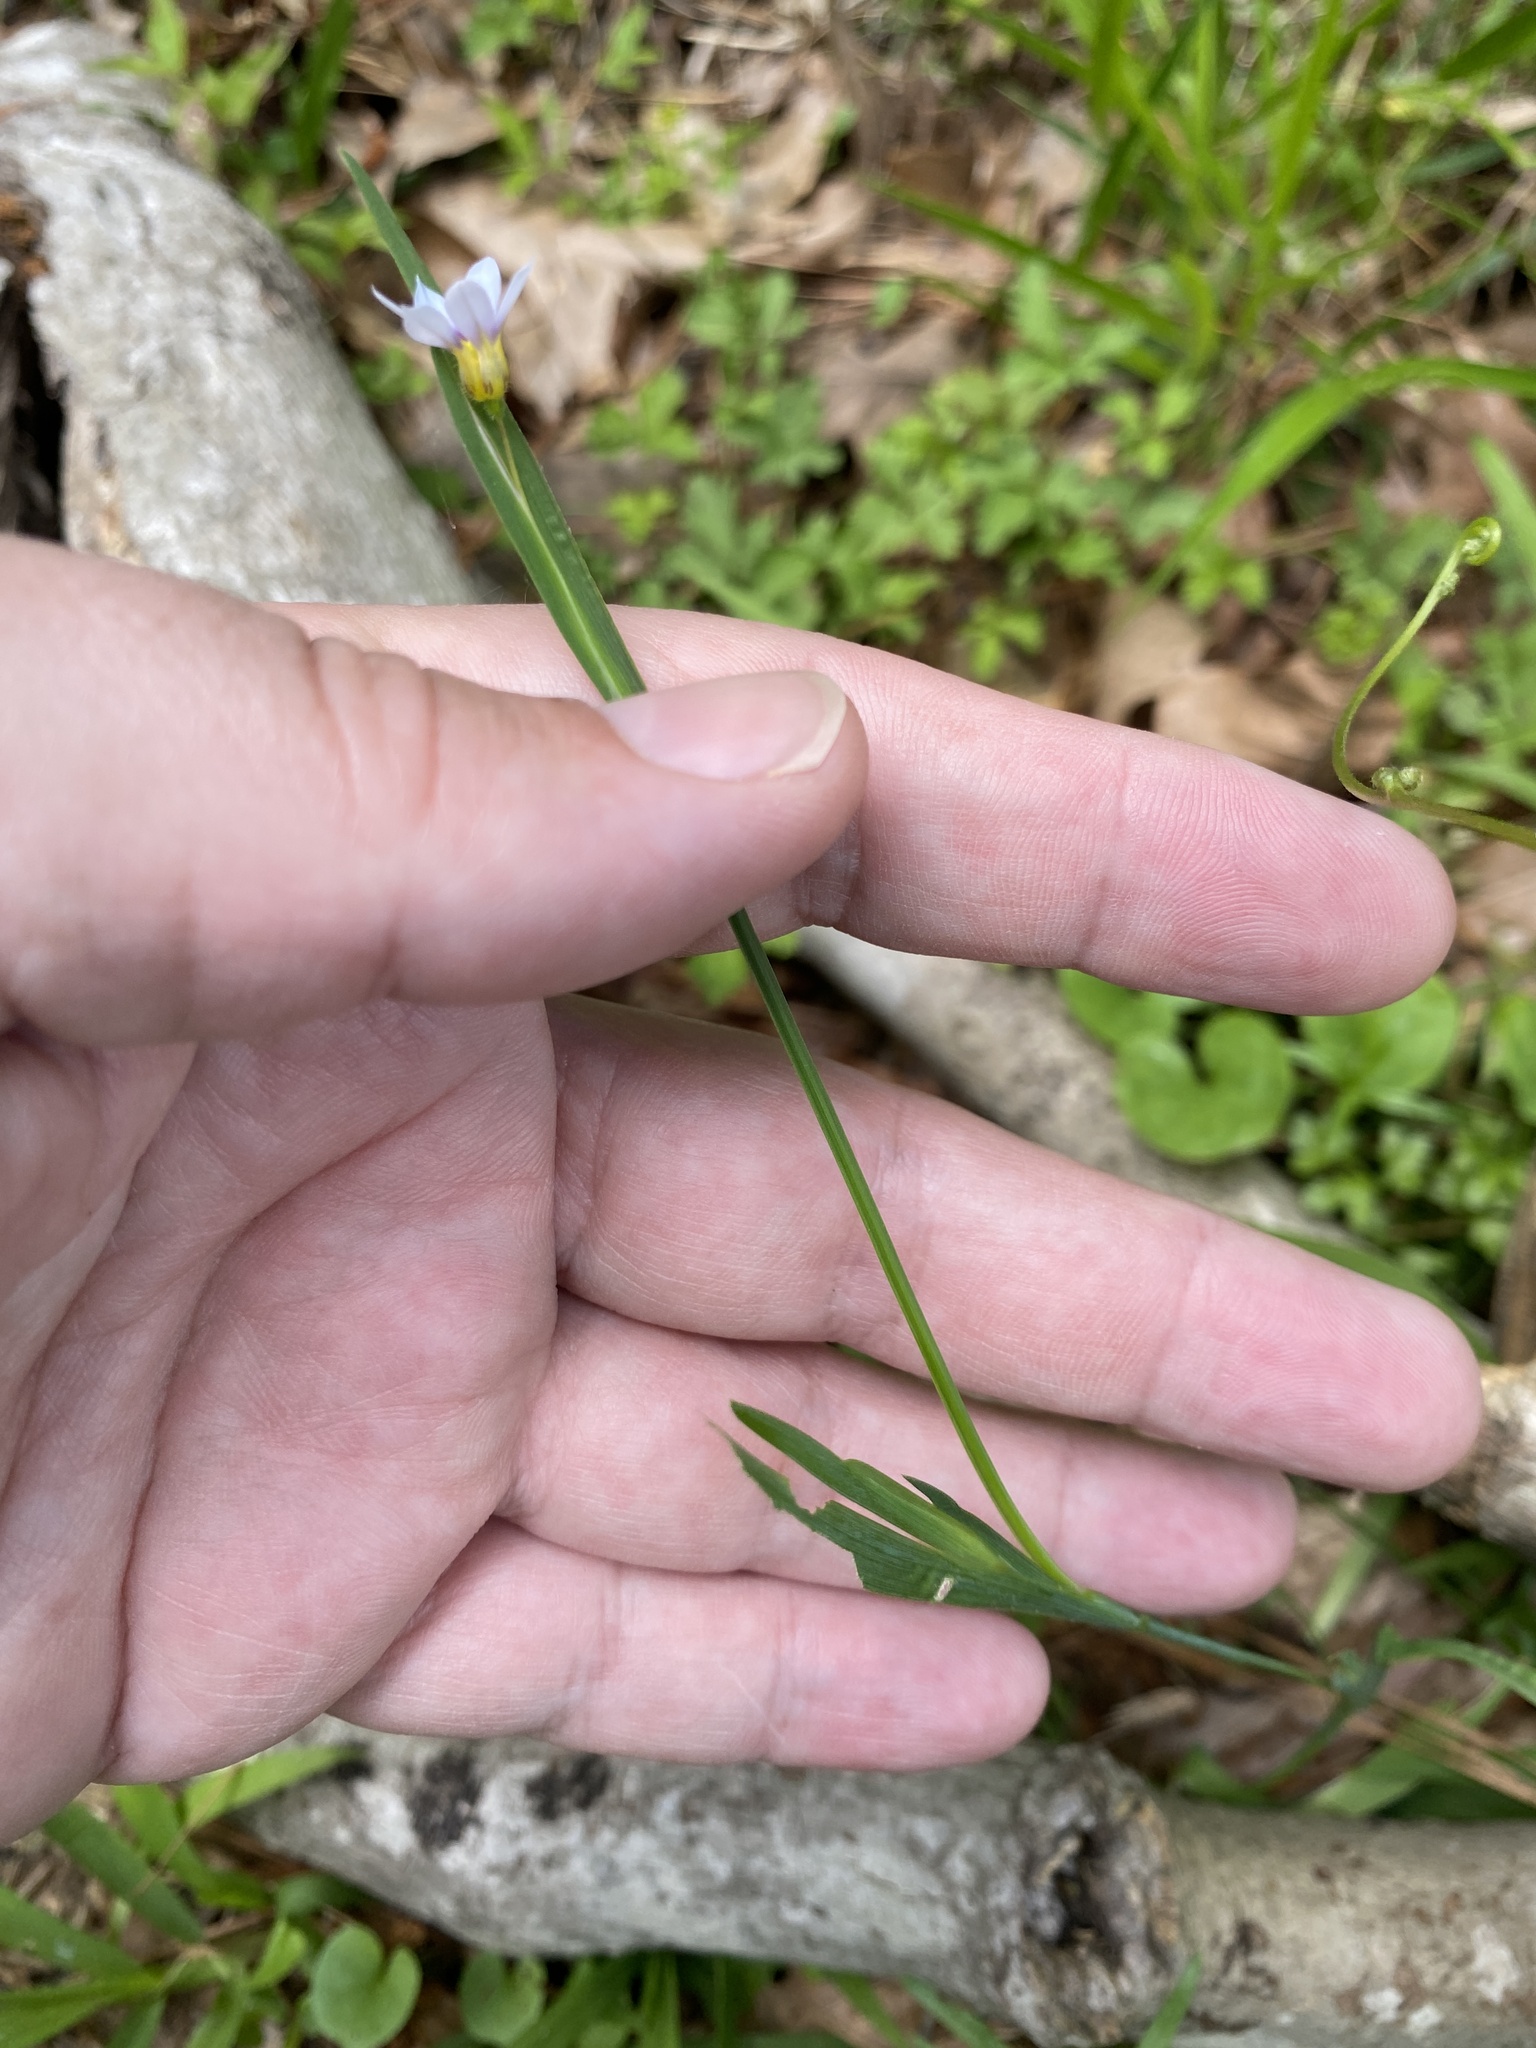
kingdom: Plantae
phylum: Tracheophyta
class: Liliopsida
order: Asparagales
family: Iridaceae
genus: Sisyrinchium
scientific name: Sisyrinchium micranthum
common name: Bermuda pigroot
